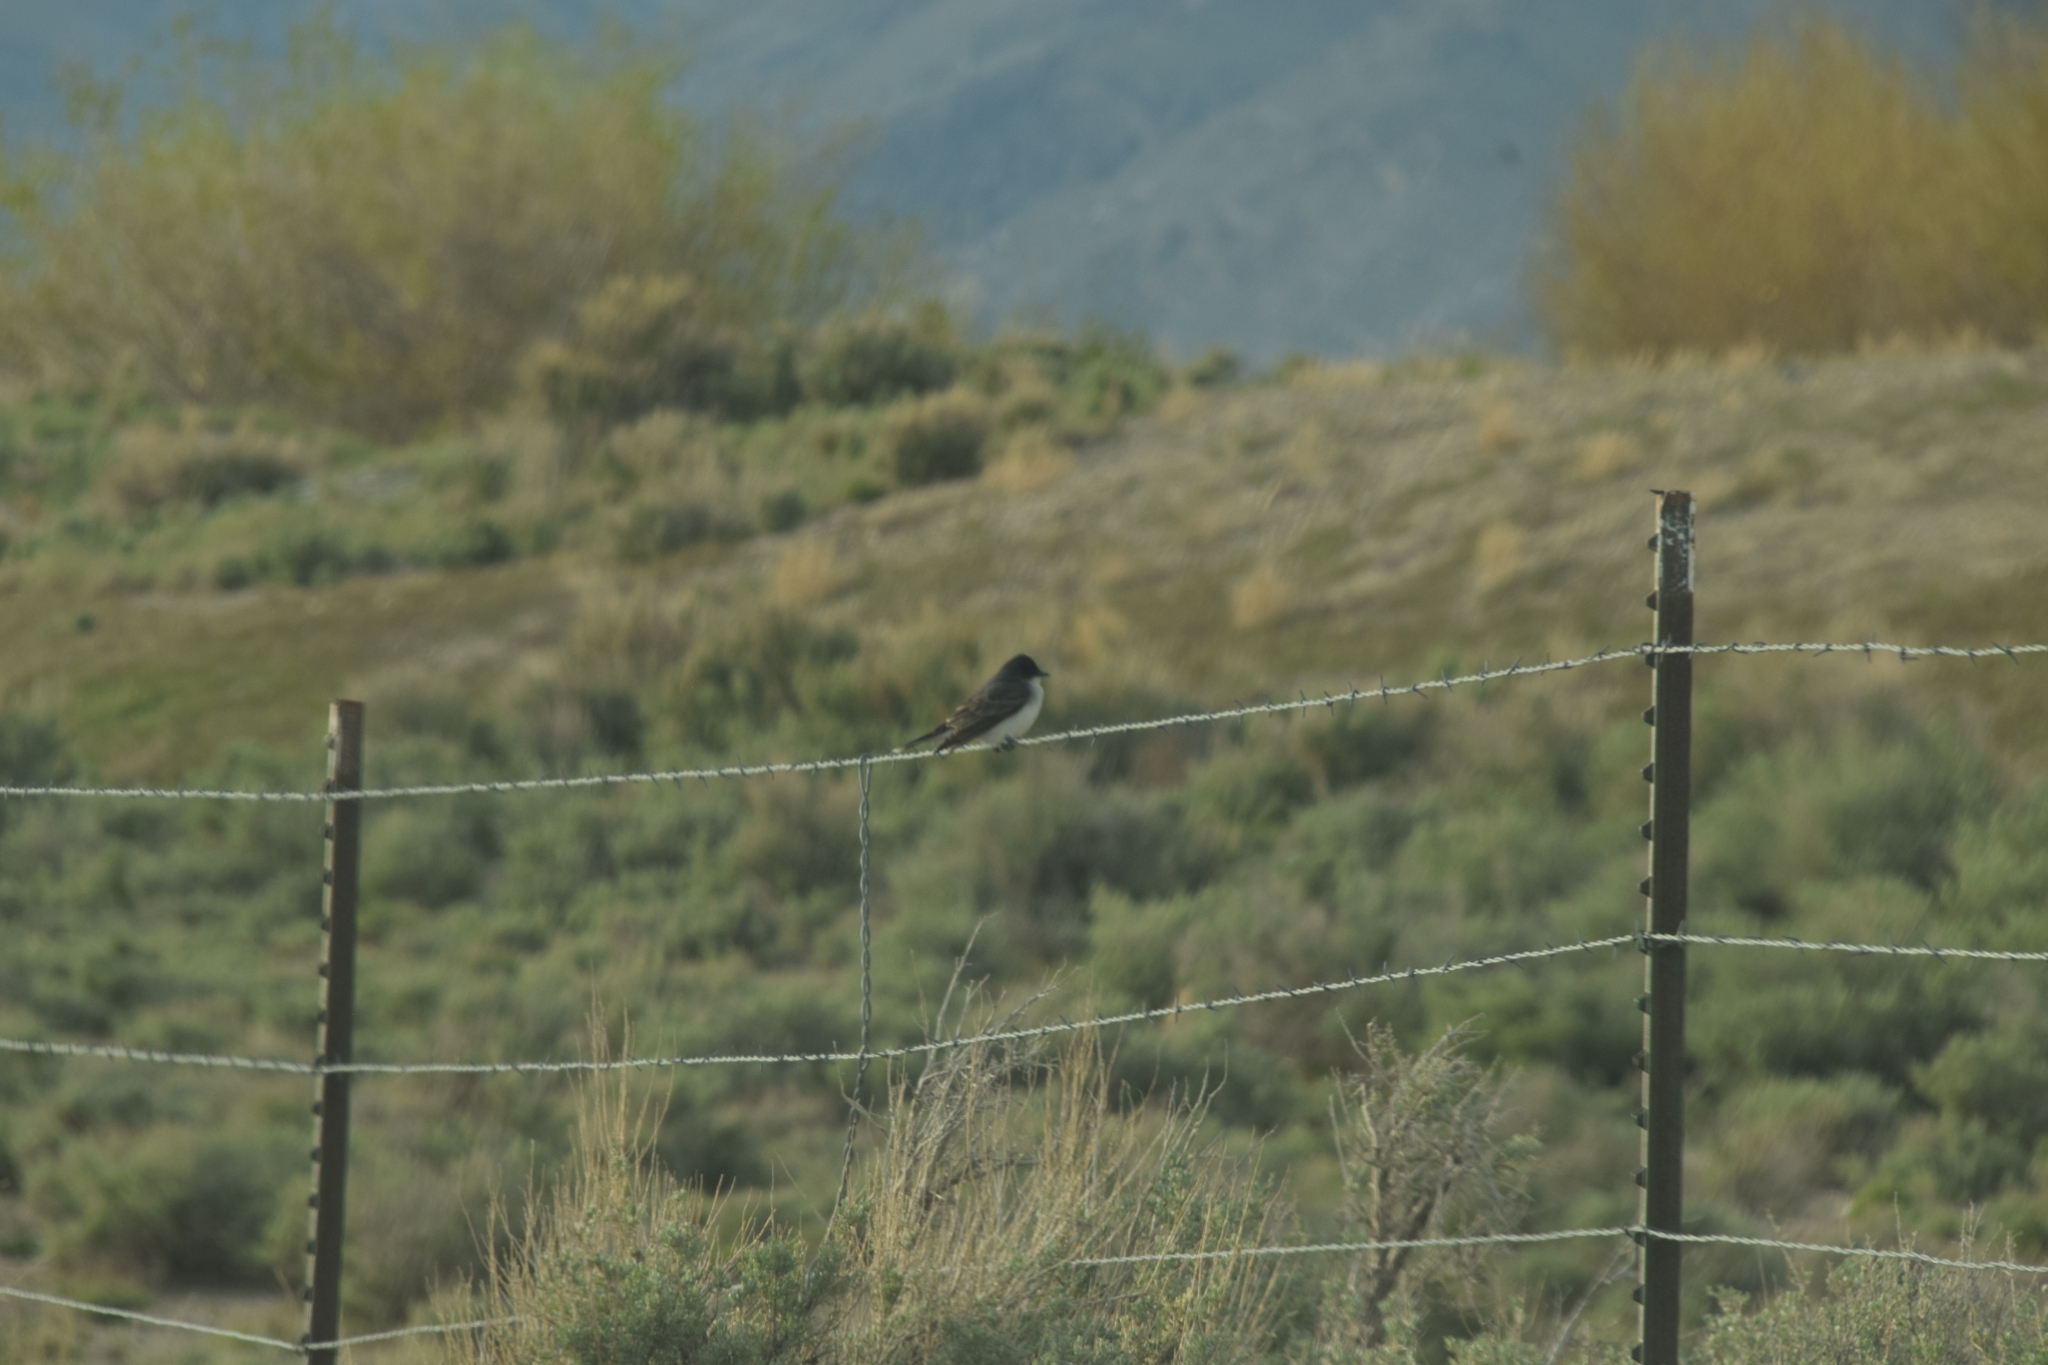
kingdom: Animalia
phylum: Chordata
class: Aves
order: Passeriformes
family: Tyrannidae
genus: Tyrannus
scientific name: Tyrannus tyrannus
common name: Eastern kingbird
